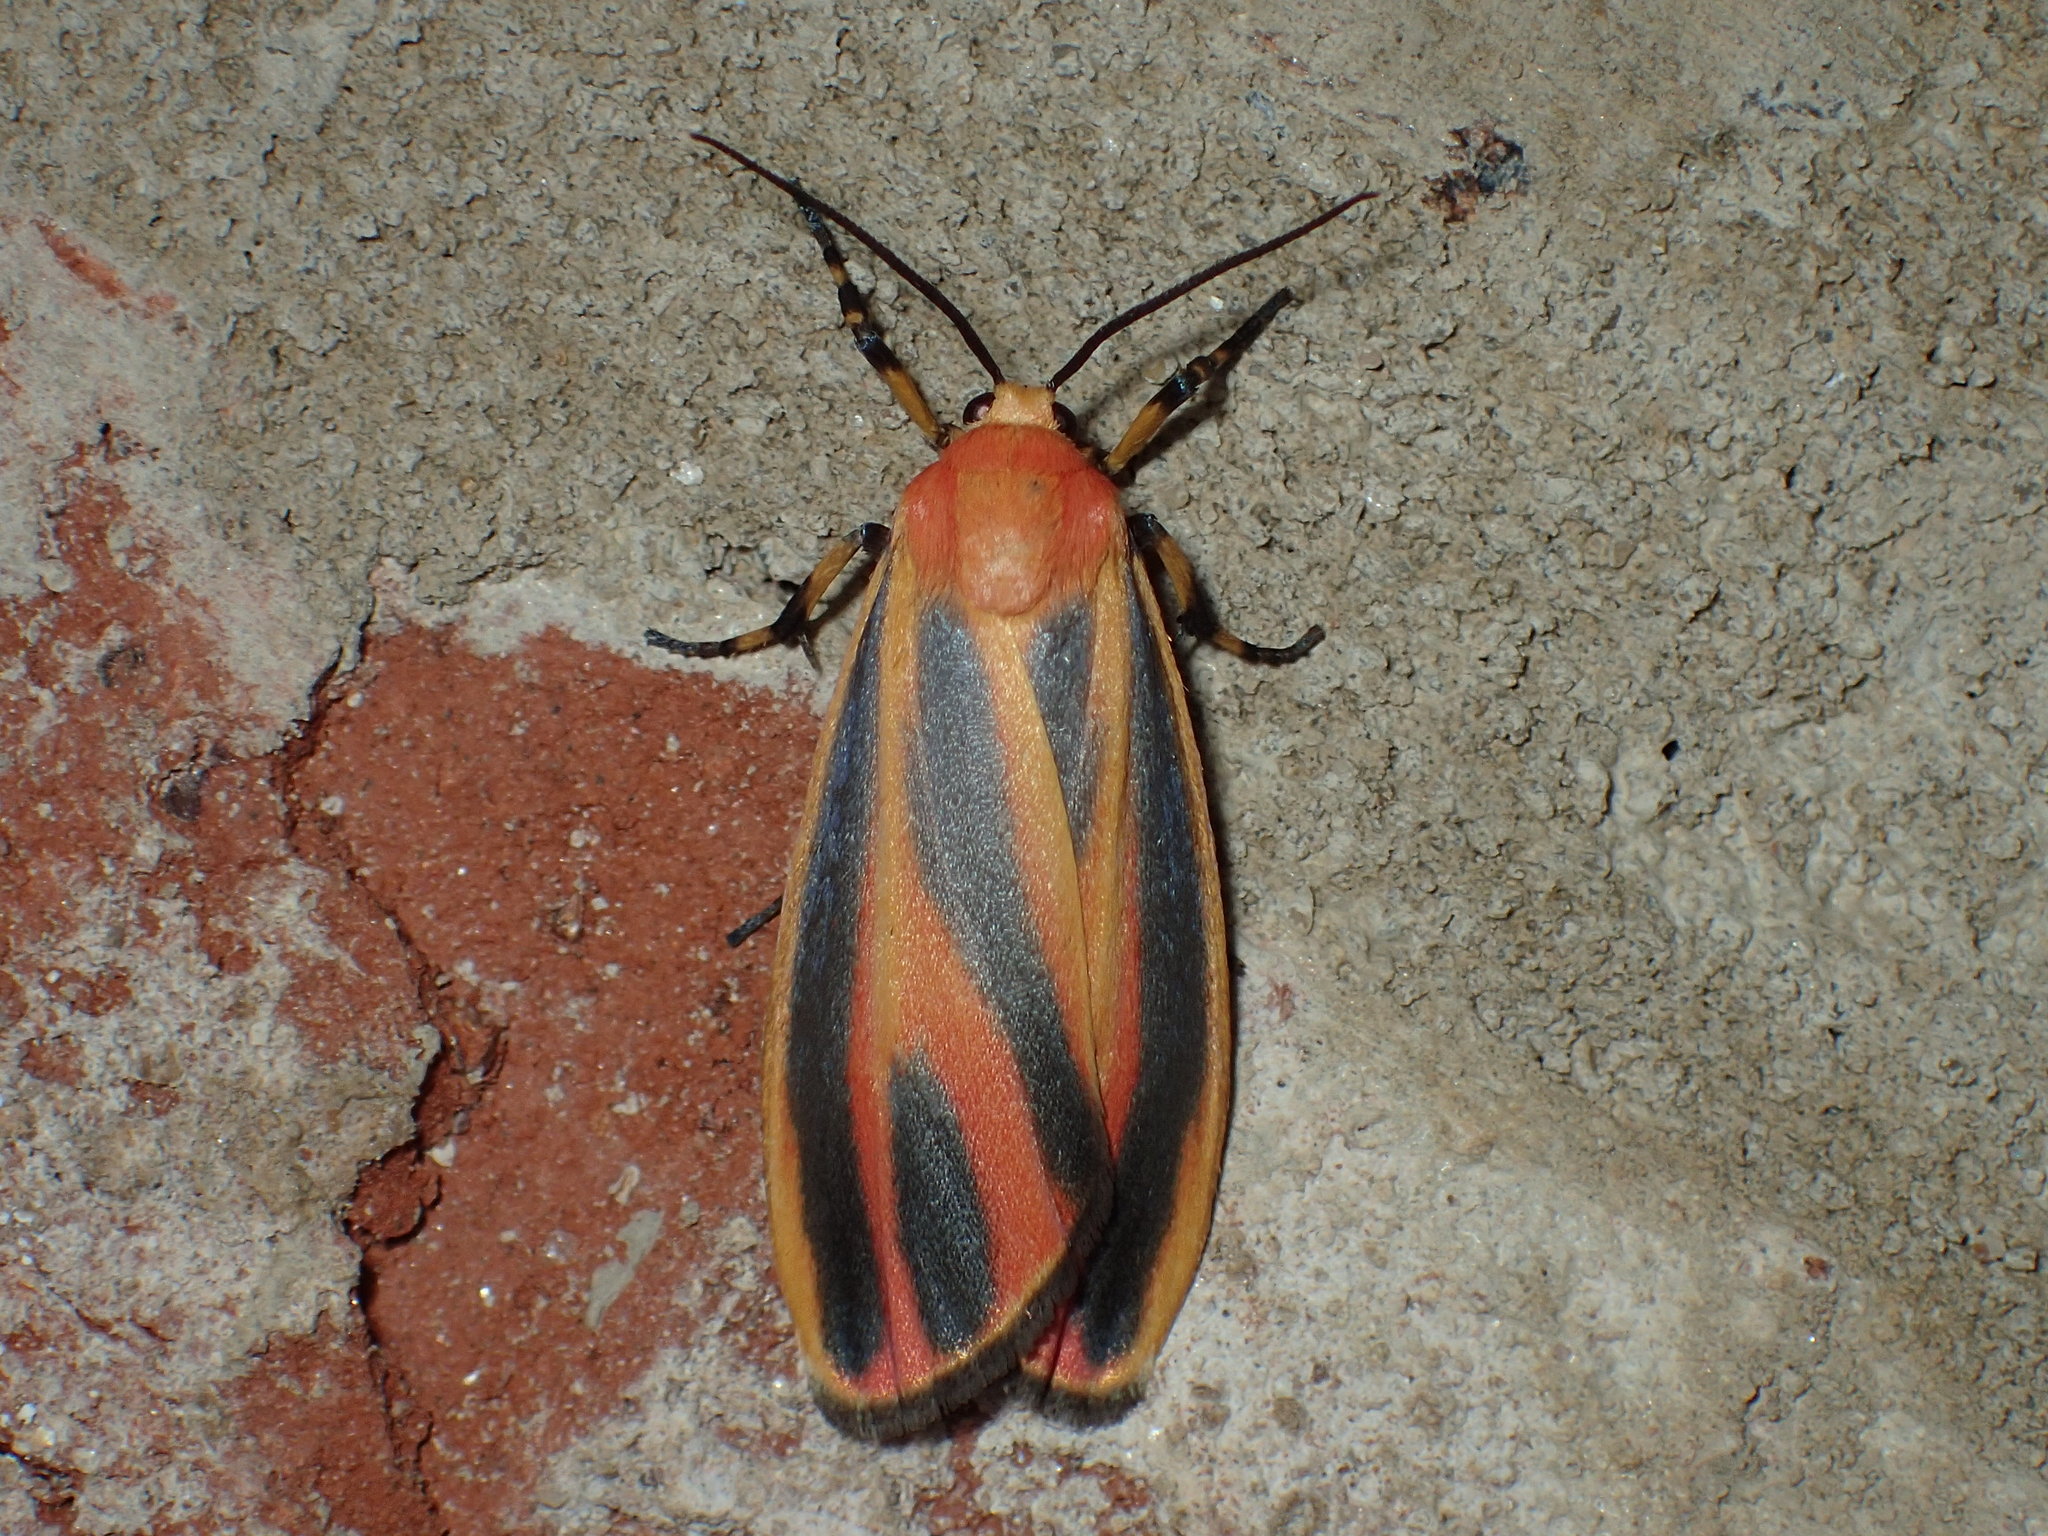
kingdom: Animalia
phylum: Arthropoda
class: Insecta
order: Lepidoptera
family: Erebidae
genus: Hypoprepia
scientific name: Hypoprepia fucosa
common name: Painted lichen moth
